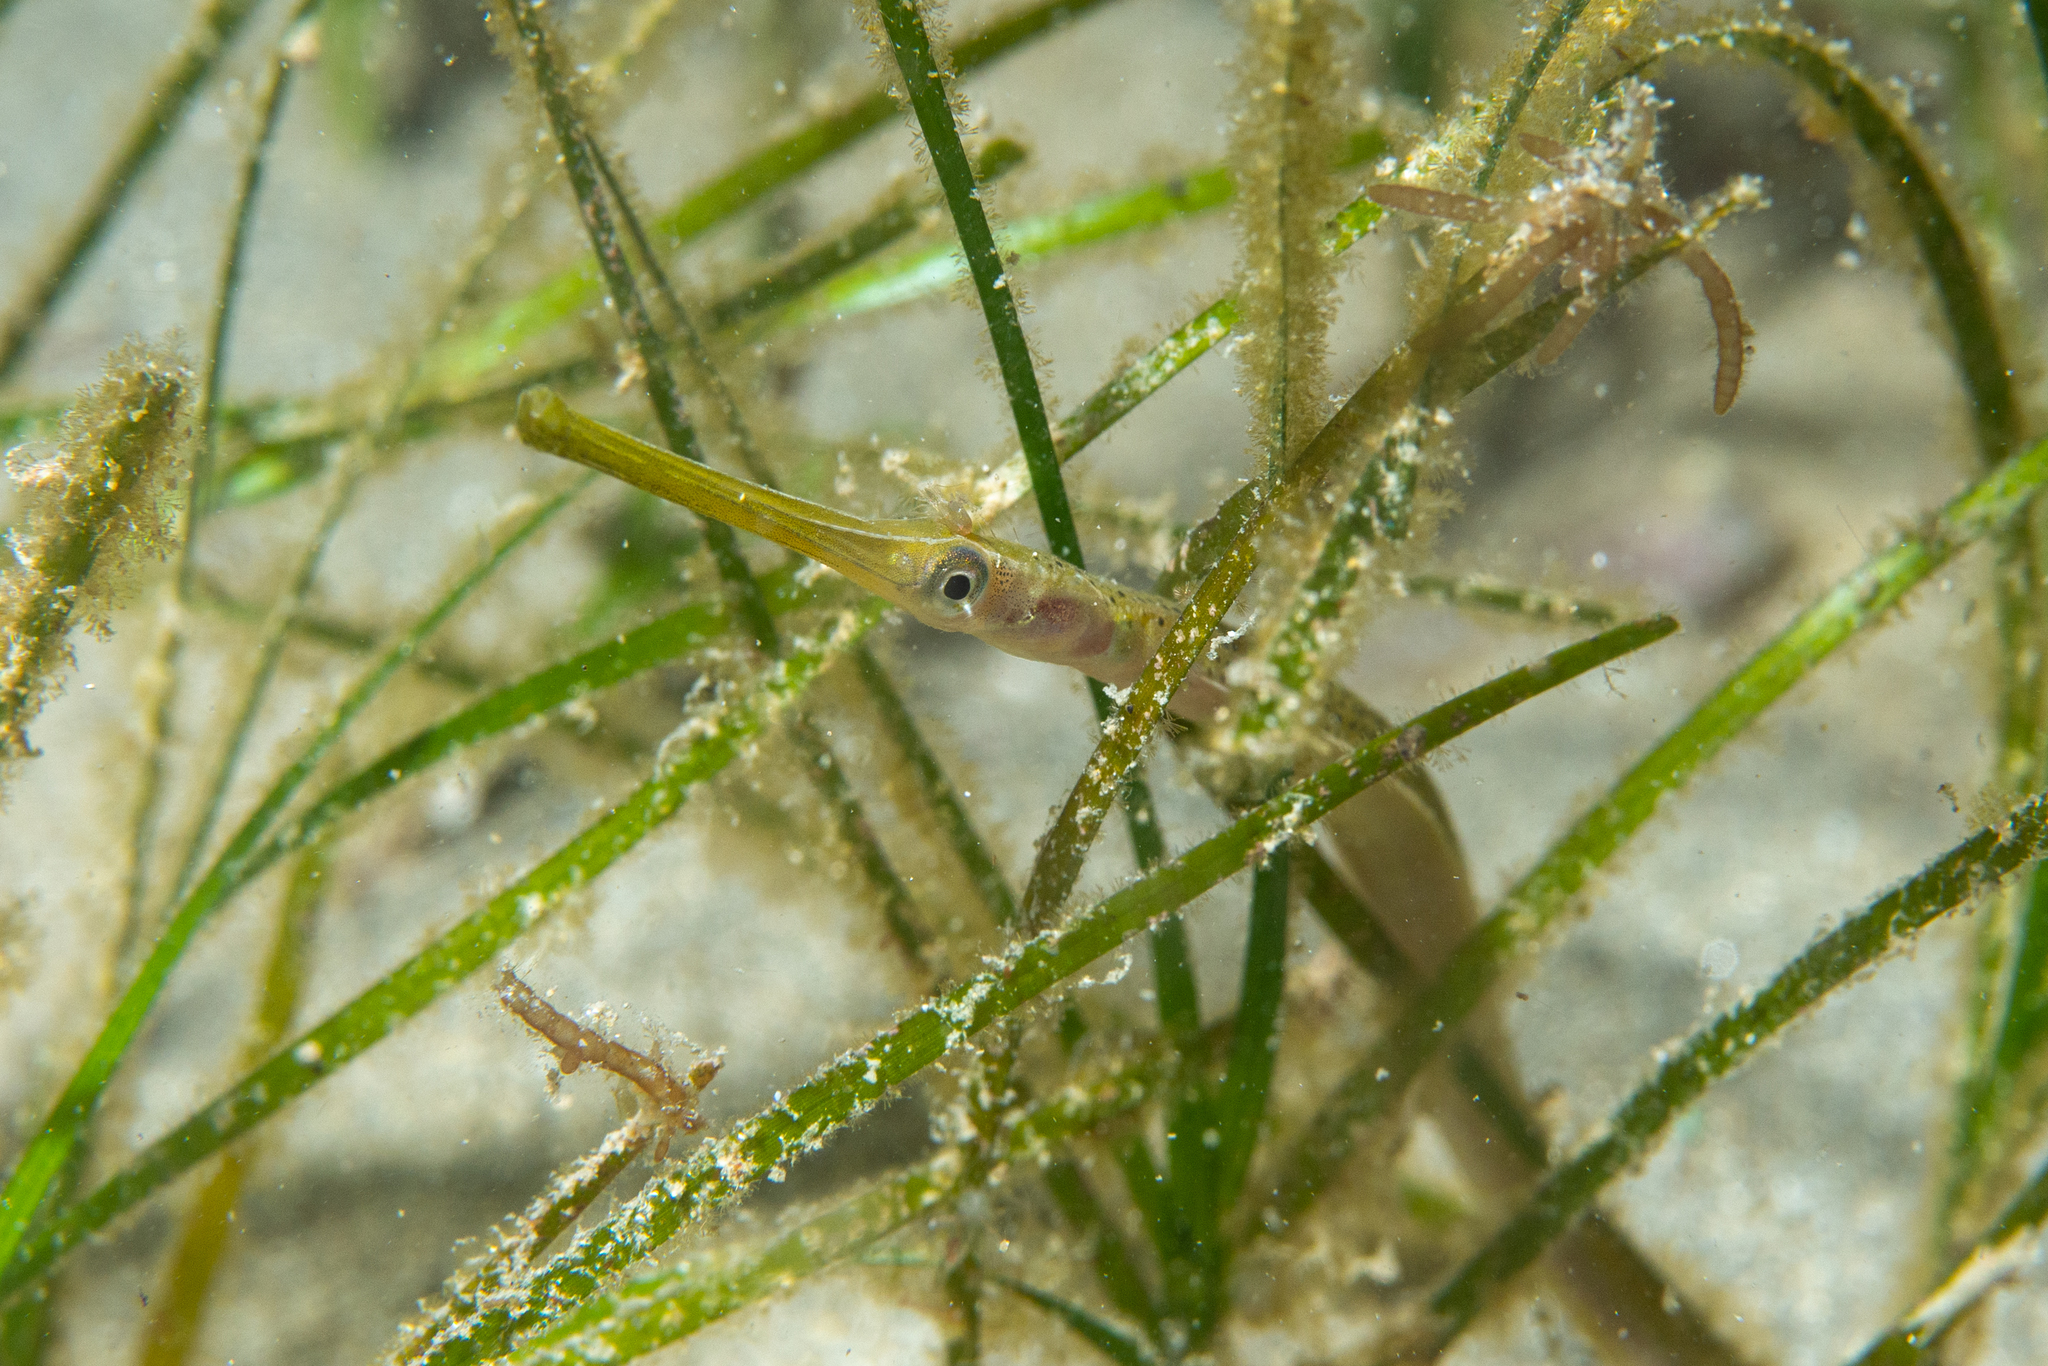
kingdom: Animalia
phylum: Chordata
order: Syngnathiformes
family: Syngnathidae
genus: Stigmatopora
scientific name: Stigmatopora argus
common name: Gulf pipefish
